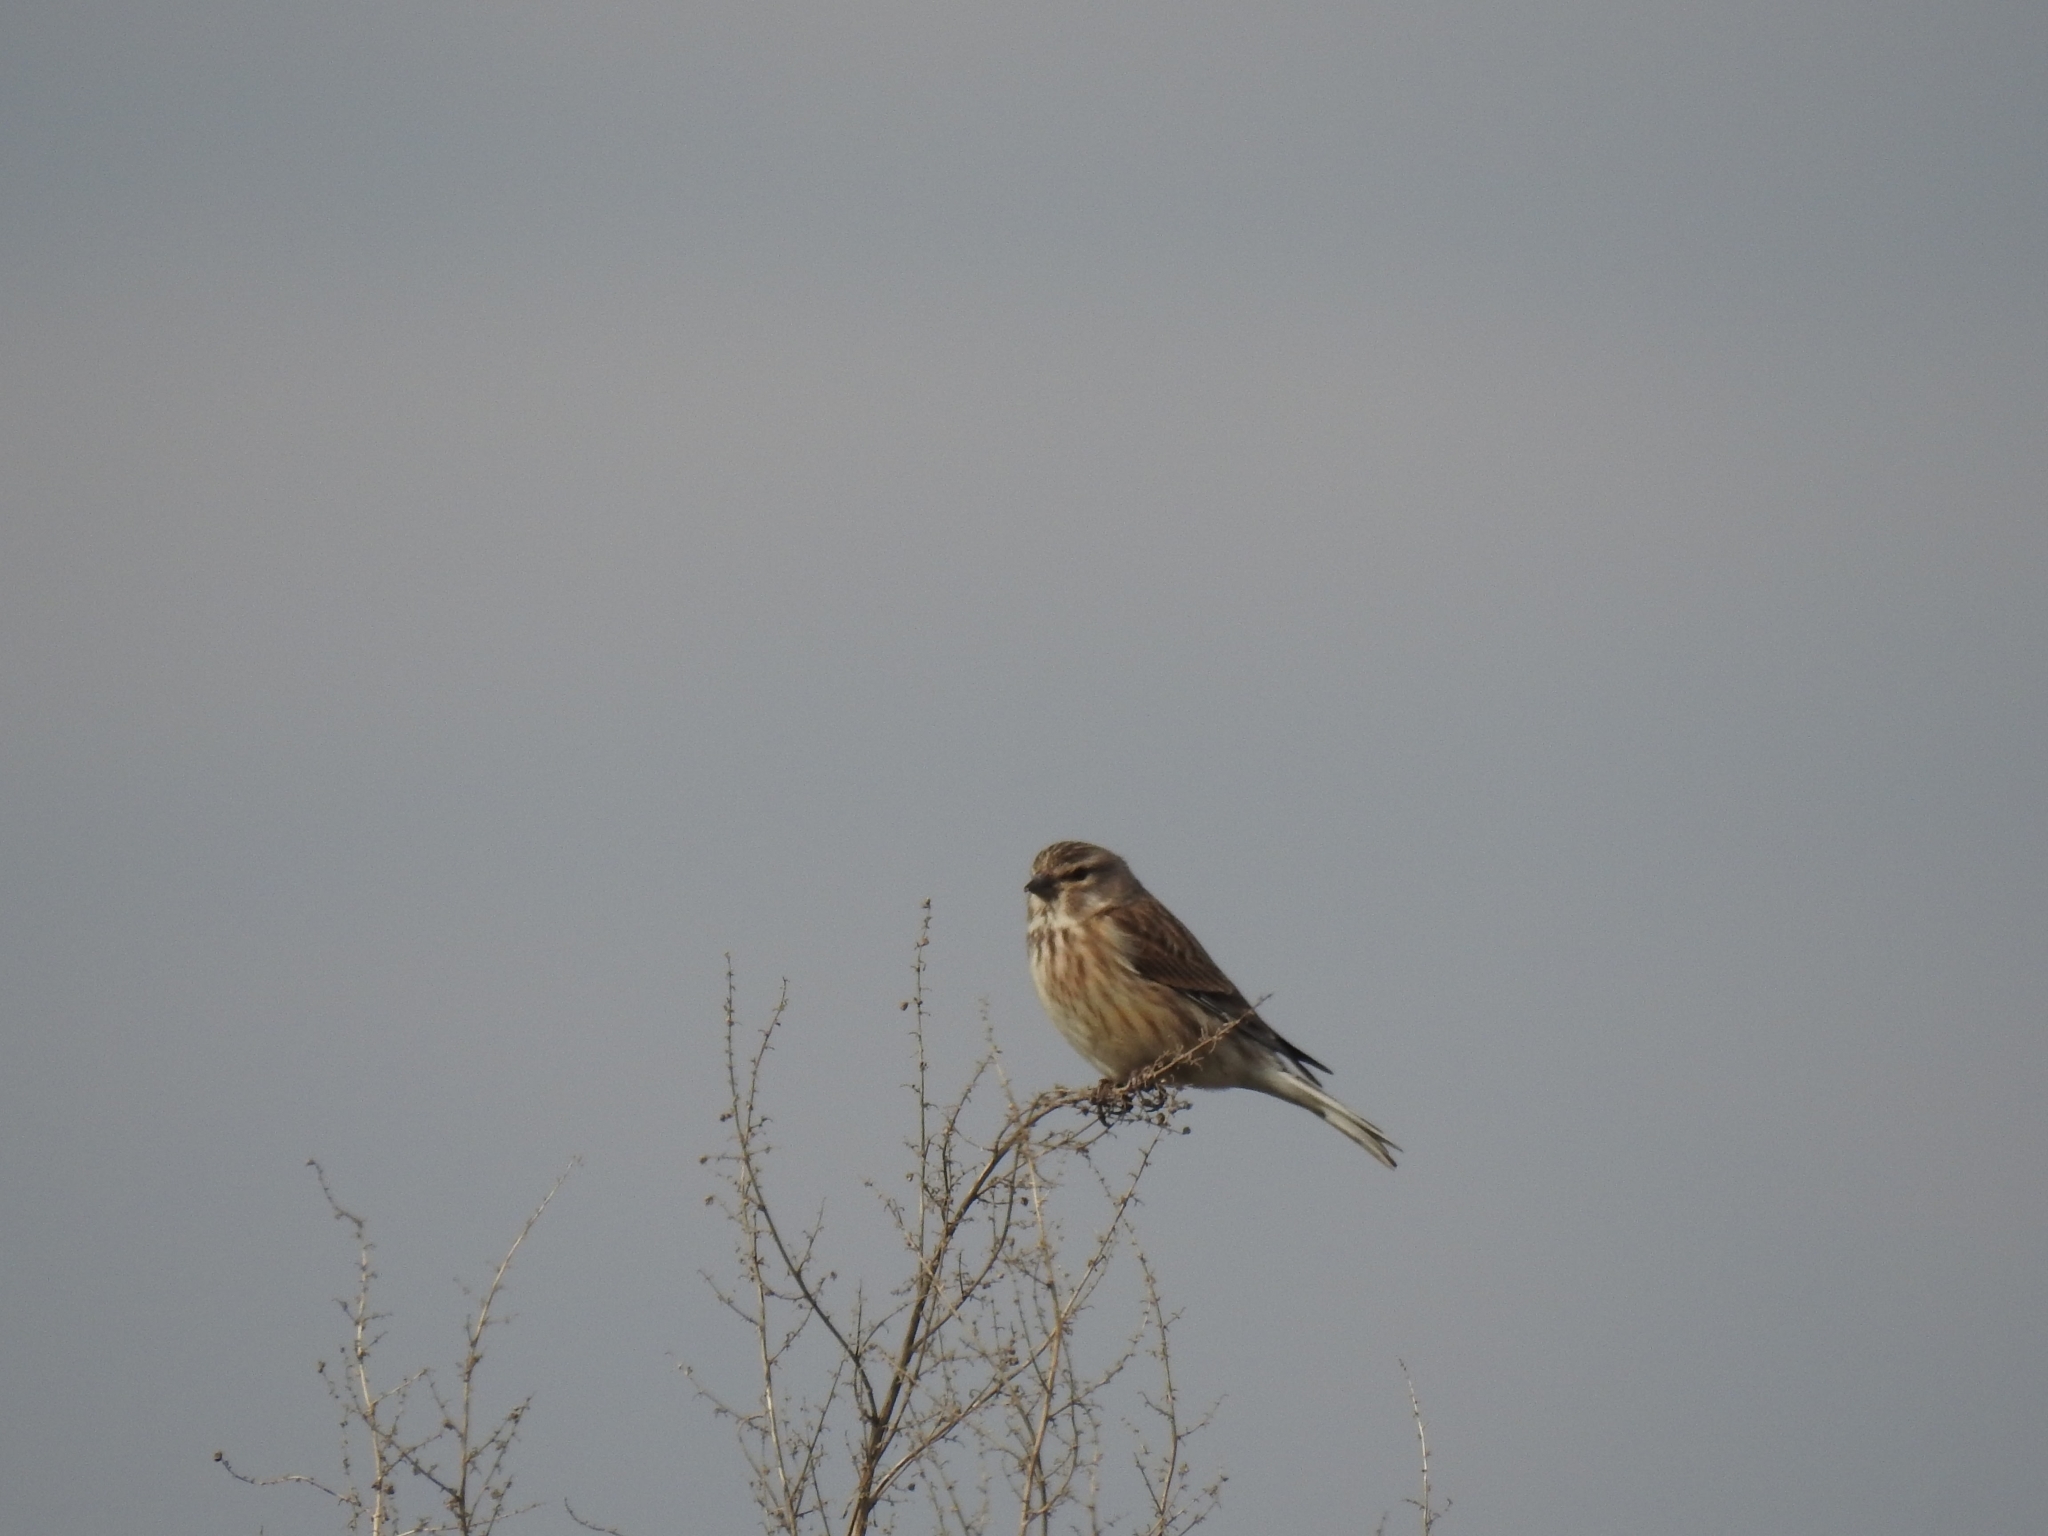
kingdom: Animalia
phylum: Chordata
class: Aves
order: Passeriformes
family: Fringillidae
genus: Linaria
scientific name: Linaria cannabina
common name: Common linnet
